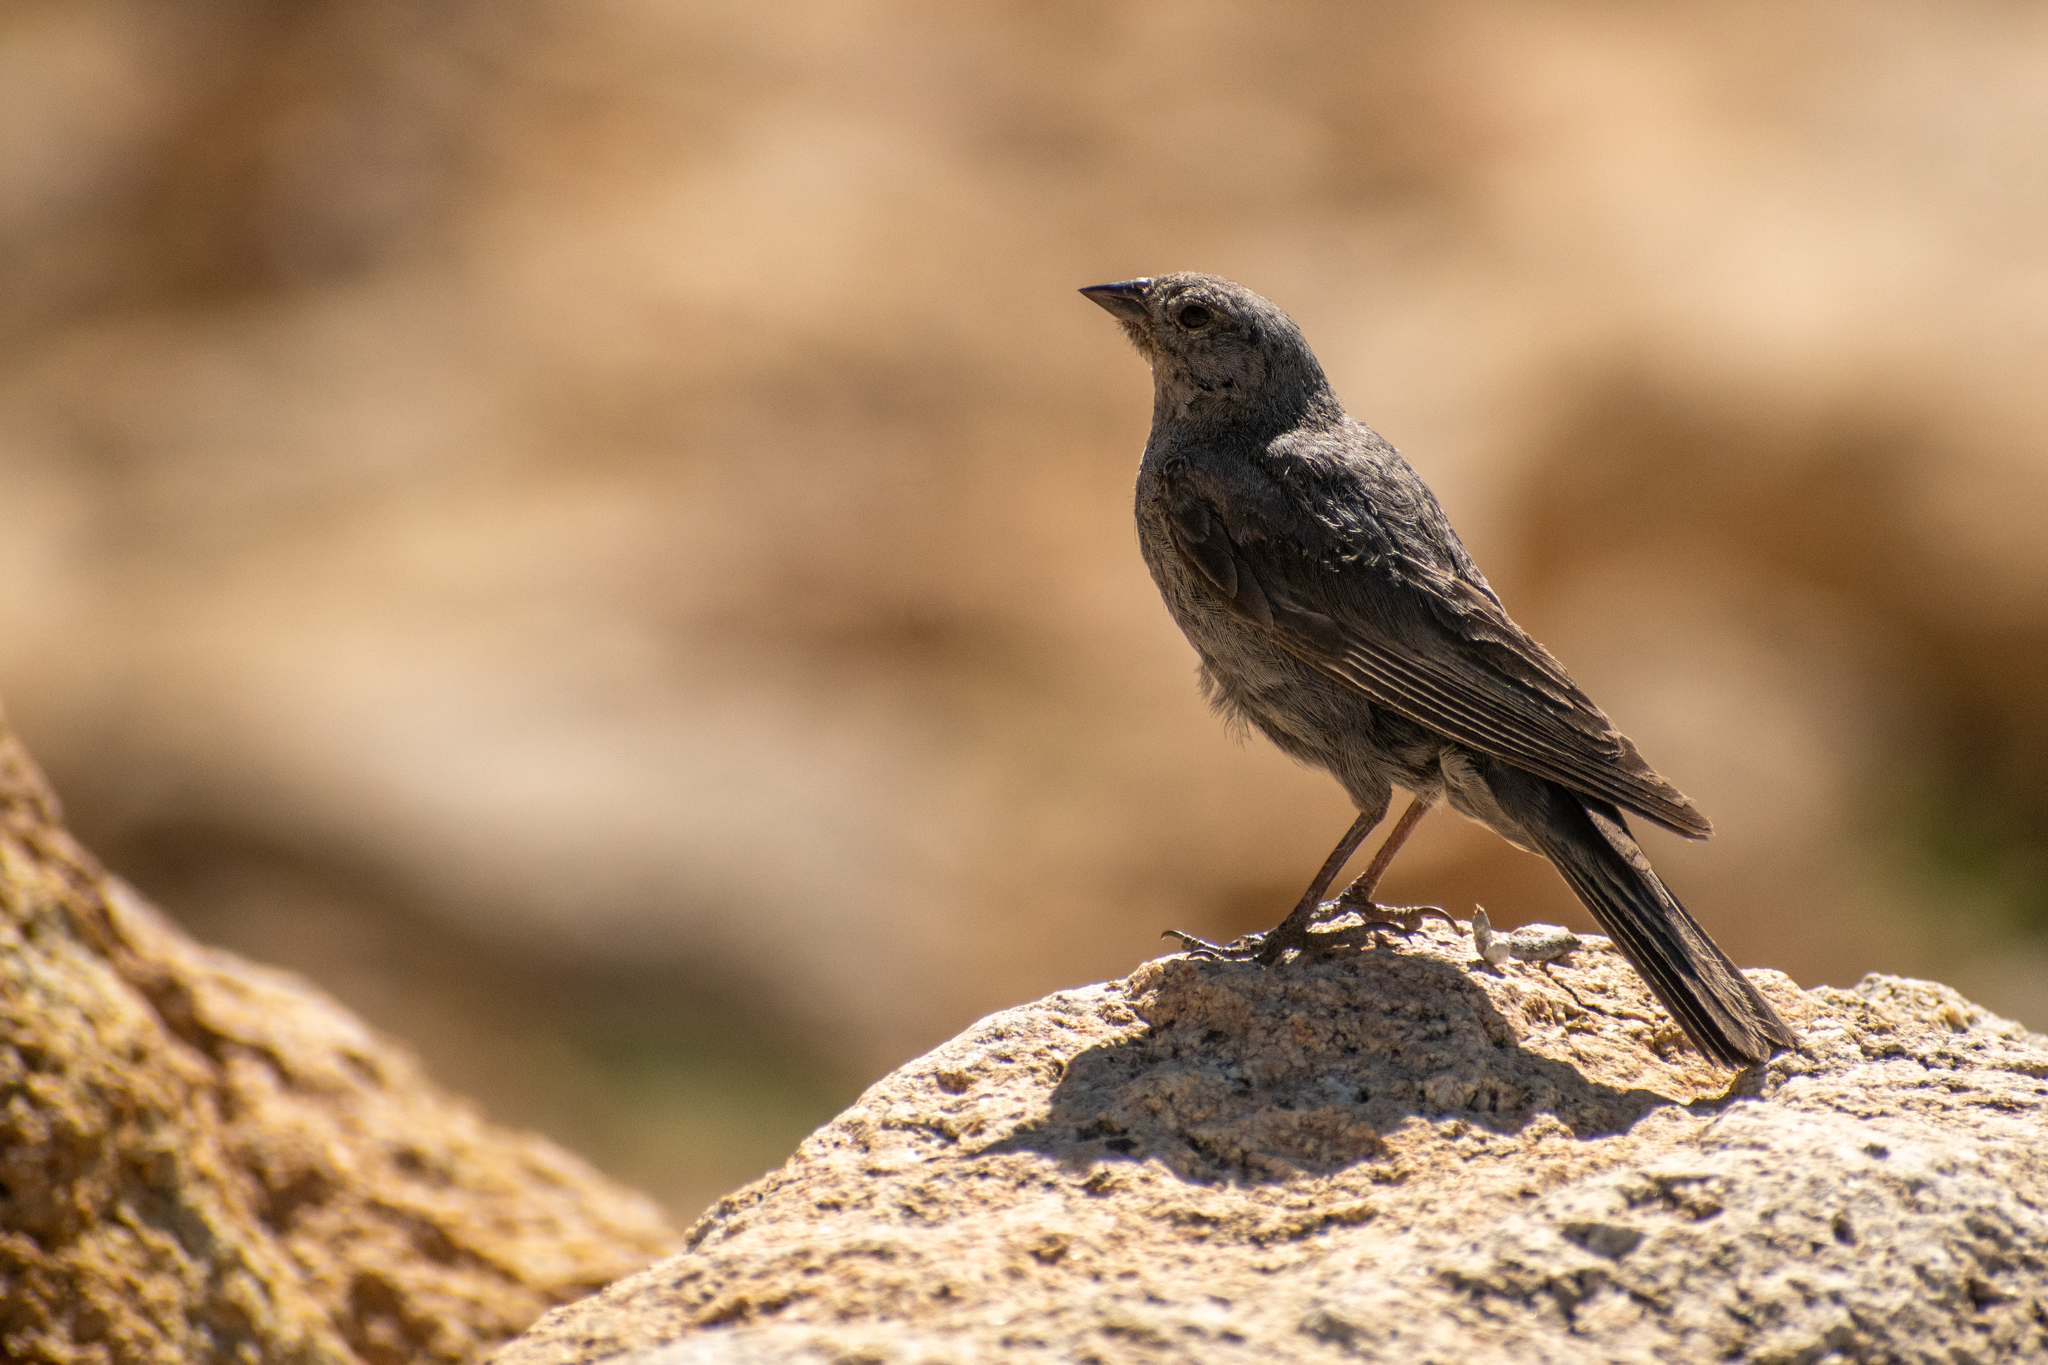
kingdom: Animalia
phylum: Chordata
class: Aves
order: Passeriformes
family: Thraupidae
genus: Geospizopsis
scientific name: Geospizopsis unicolor
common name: Plumbeous sierra-finch
